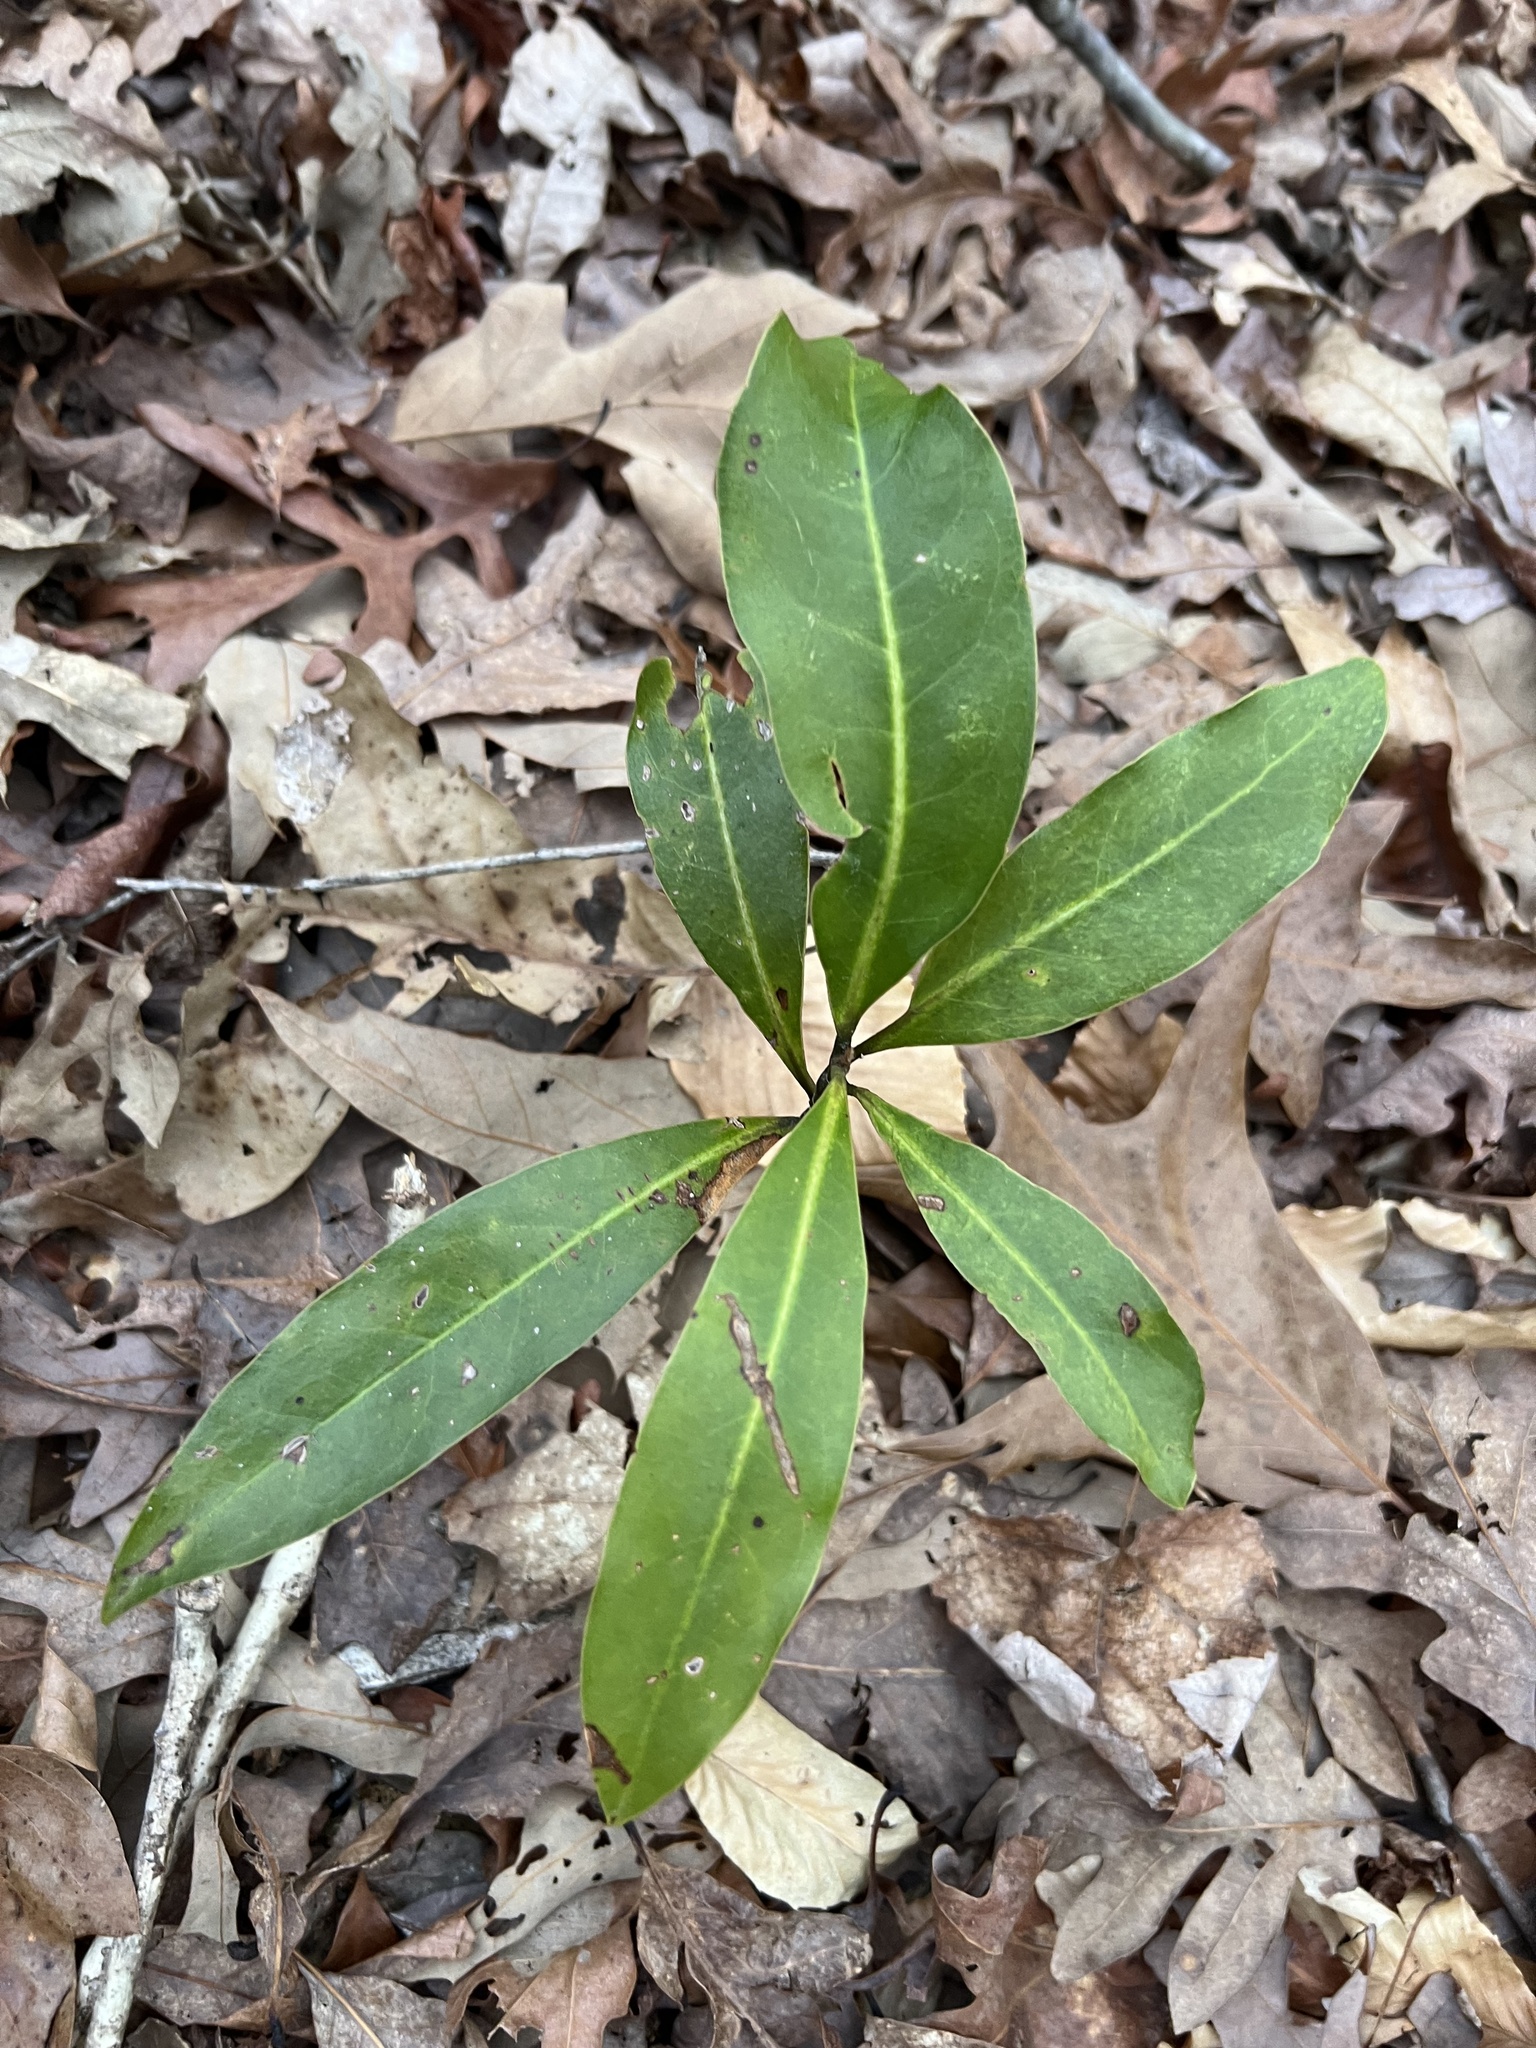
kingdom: Plantae
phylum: Tracheophyta
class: Magnoliopsida
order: Magnoliales
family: Magnoliaceae
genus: Magnolia
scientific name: Magnolia virginiana
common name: Swamp bay
